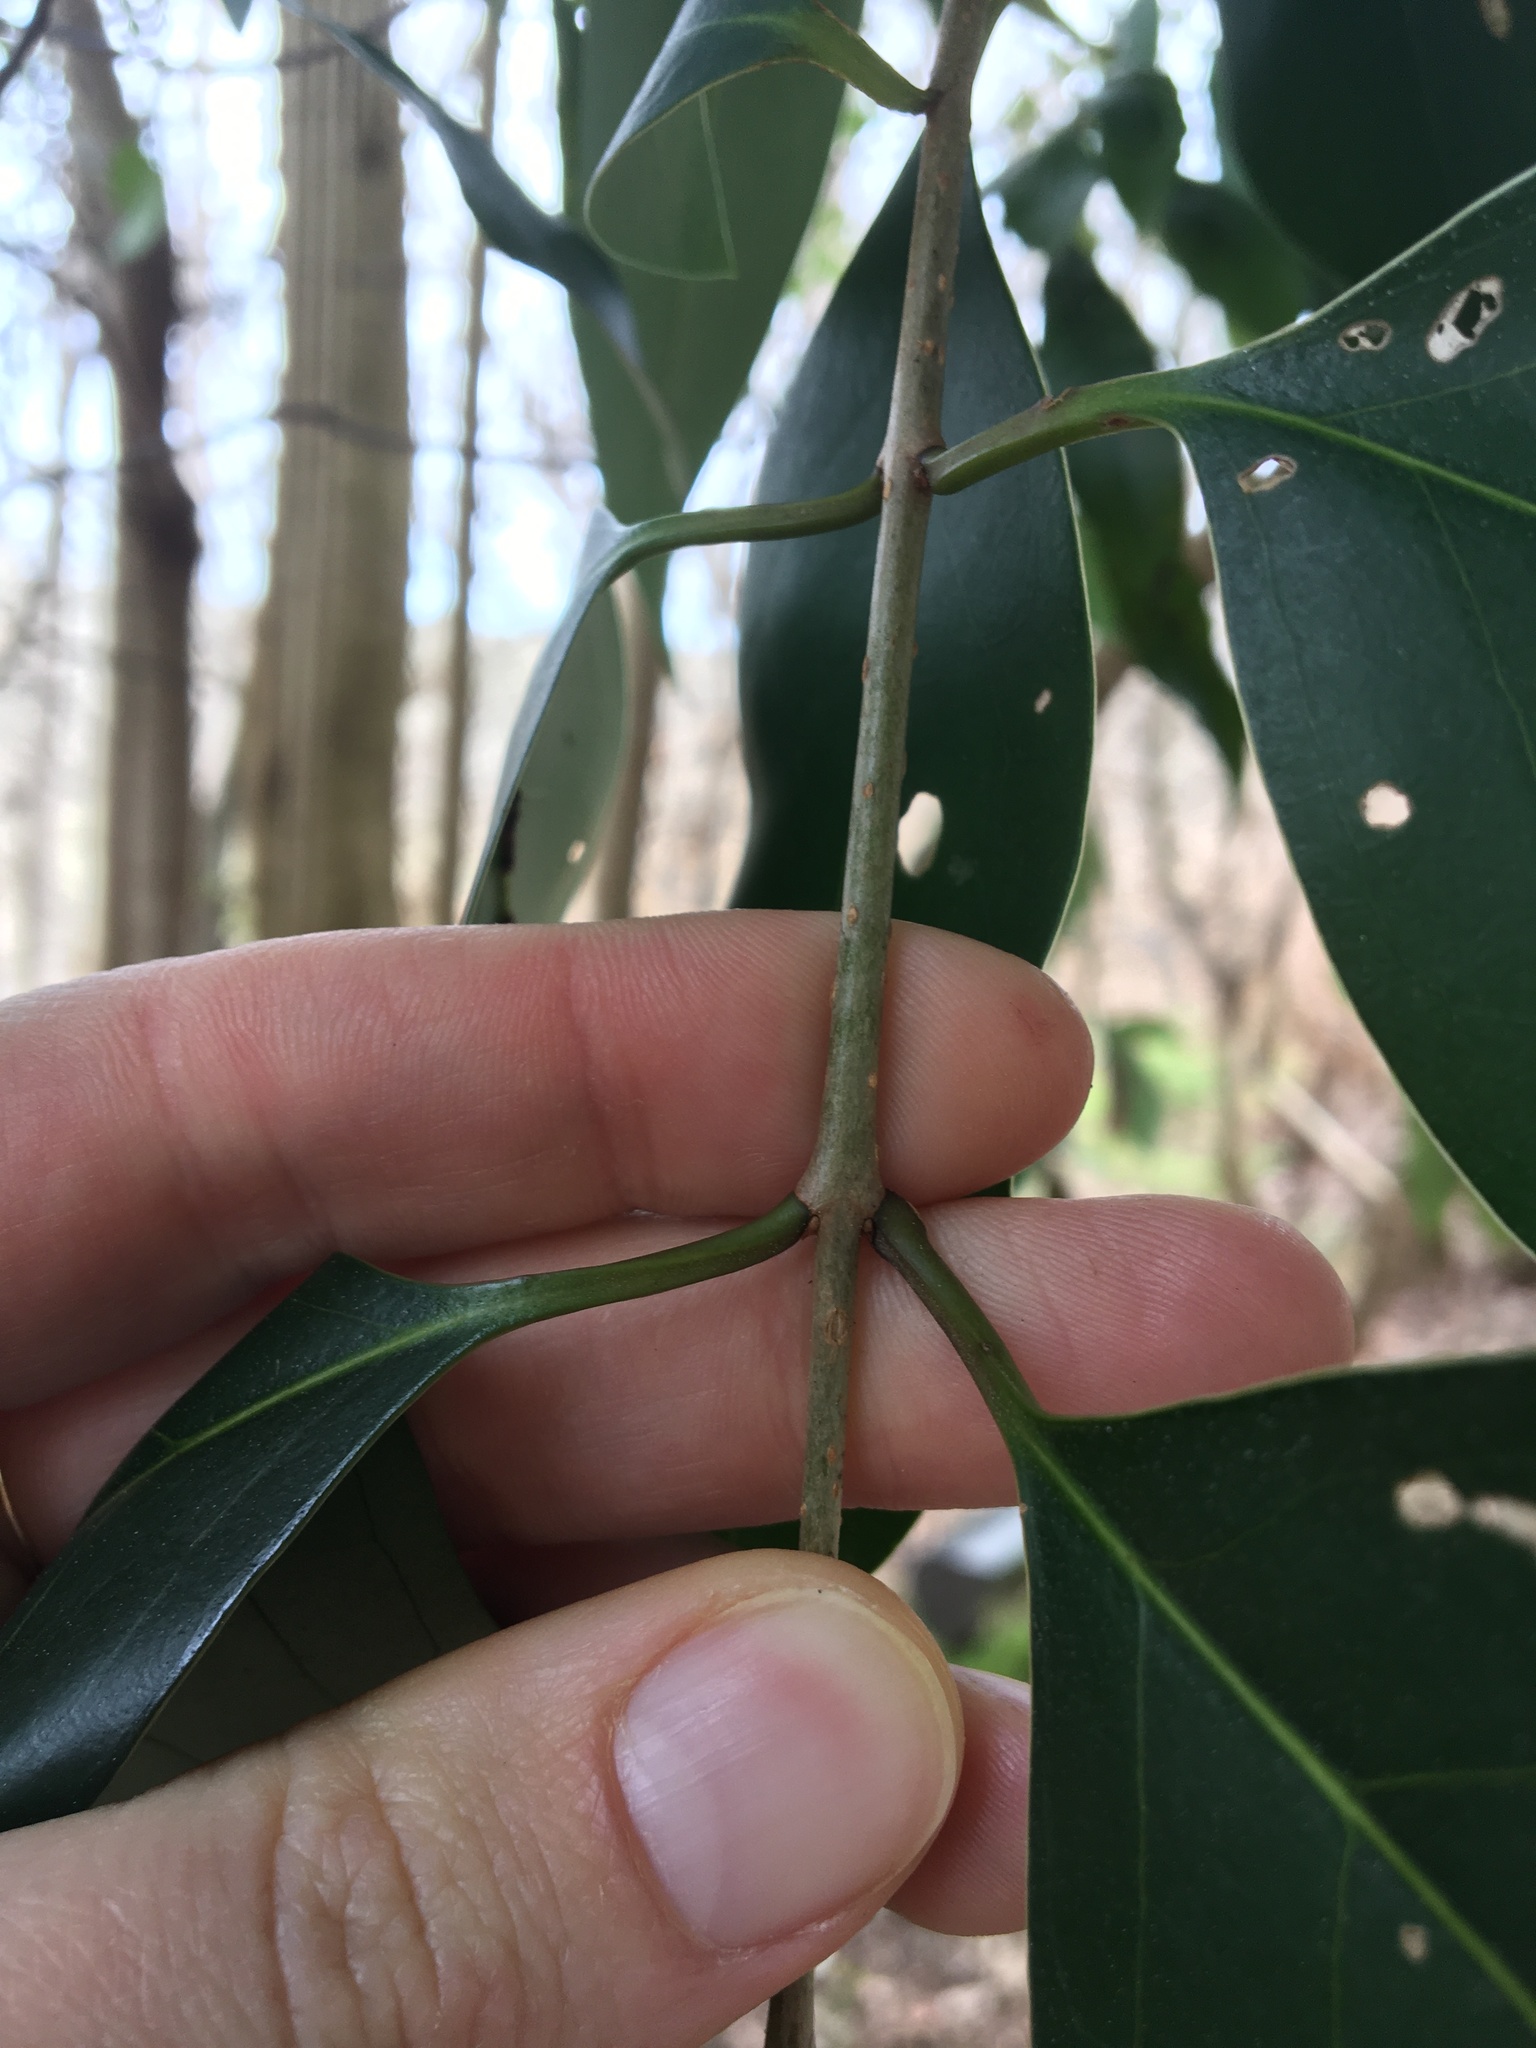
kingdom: Plantae
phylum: Tracheophyta
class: Magnoliopsida
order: Lamiales
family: Oleaceae
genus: Ligustrum
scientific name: Ligustrum lucidum
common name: Glossy privet
